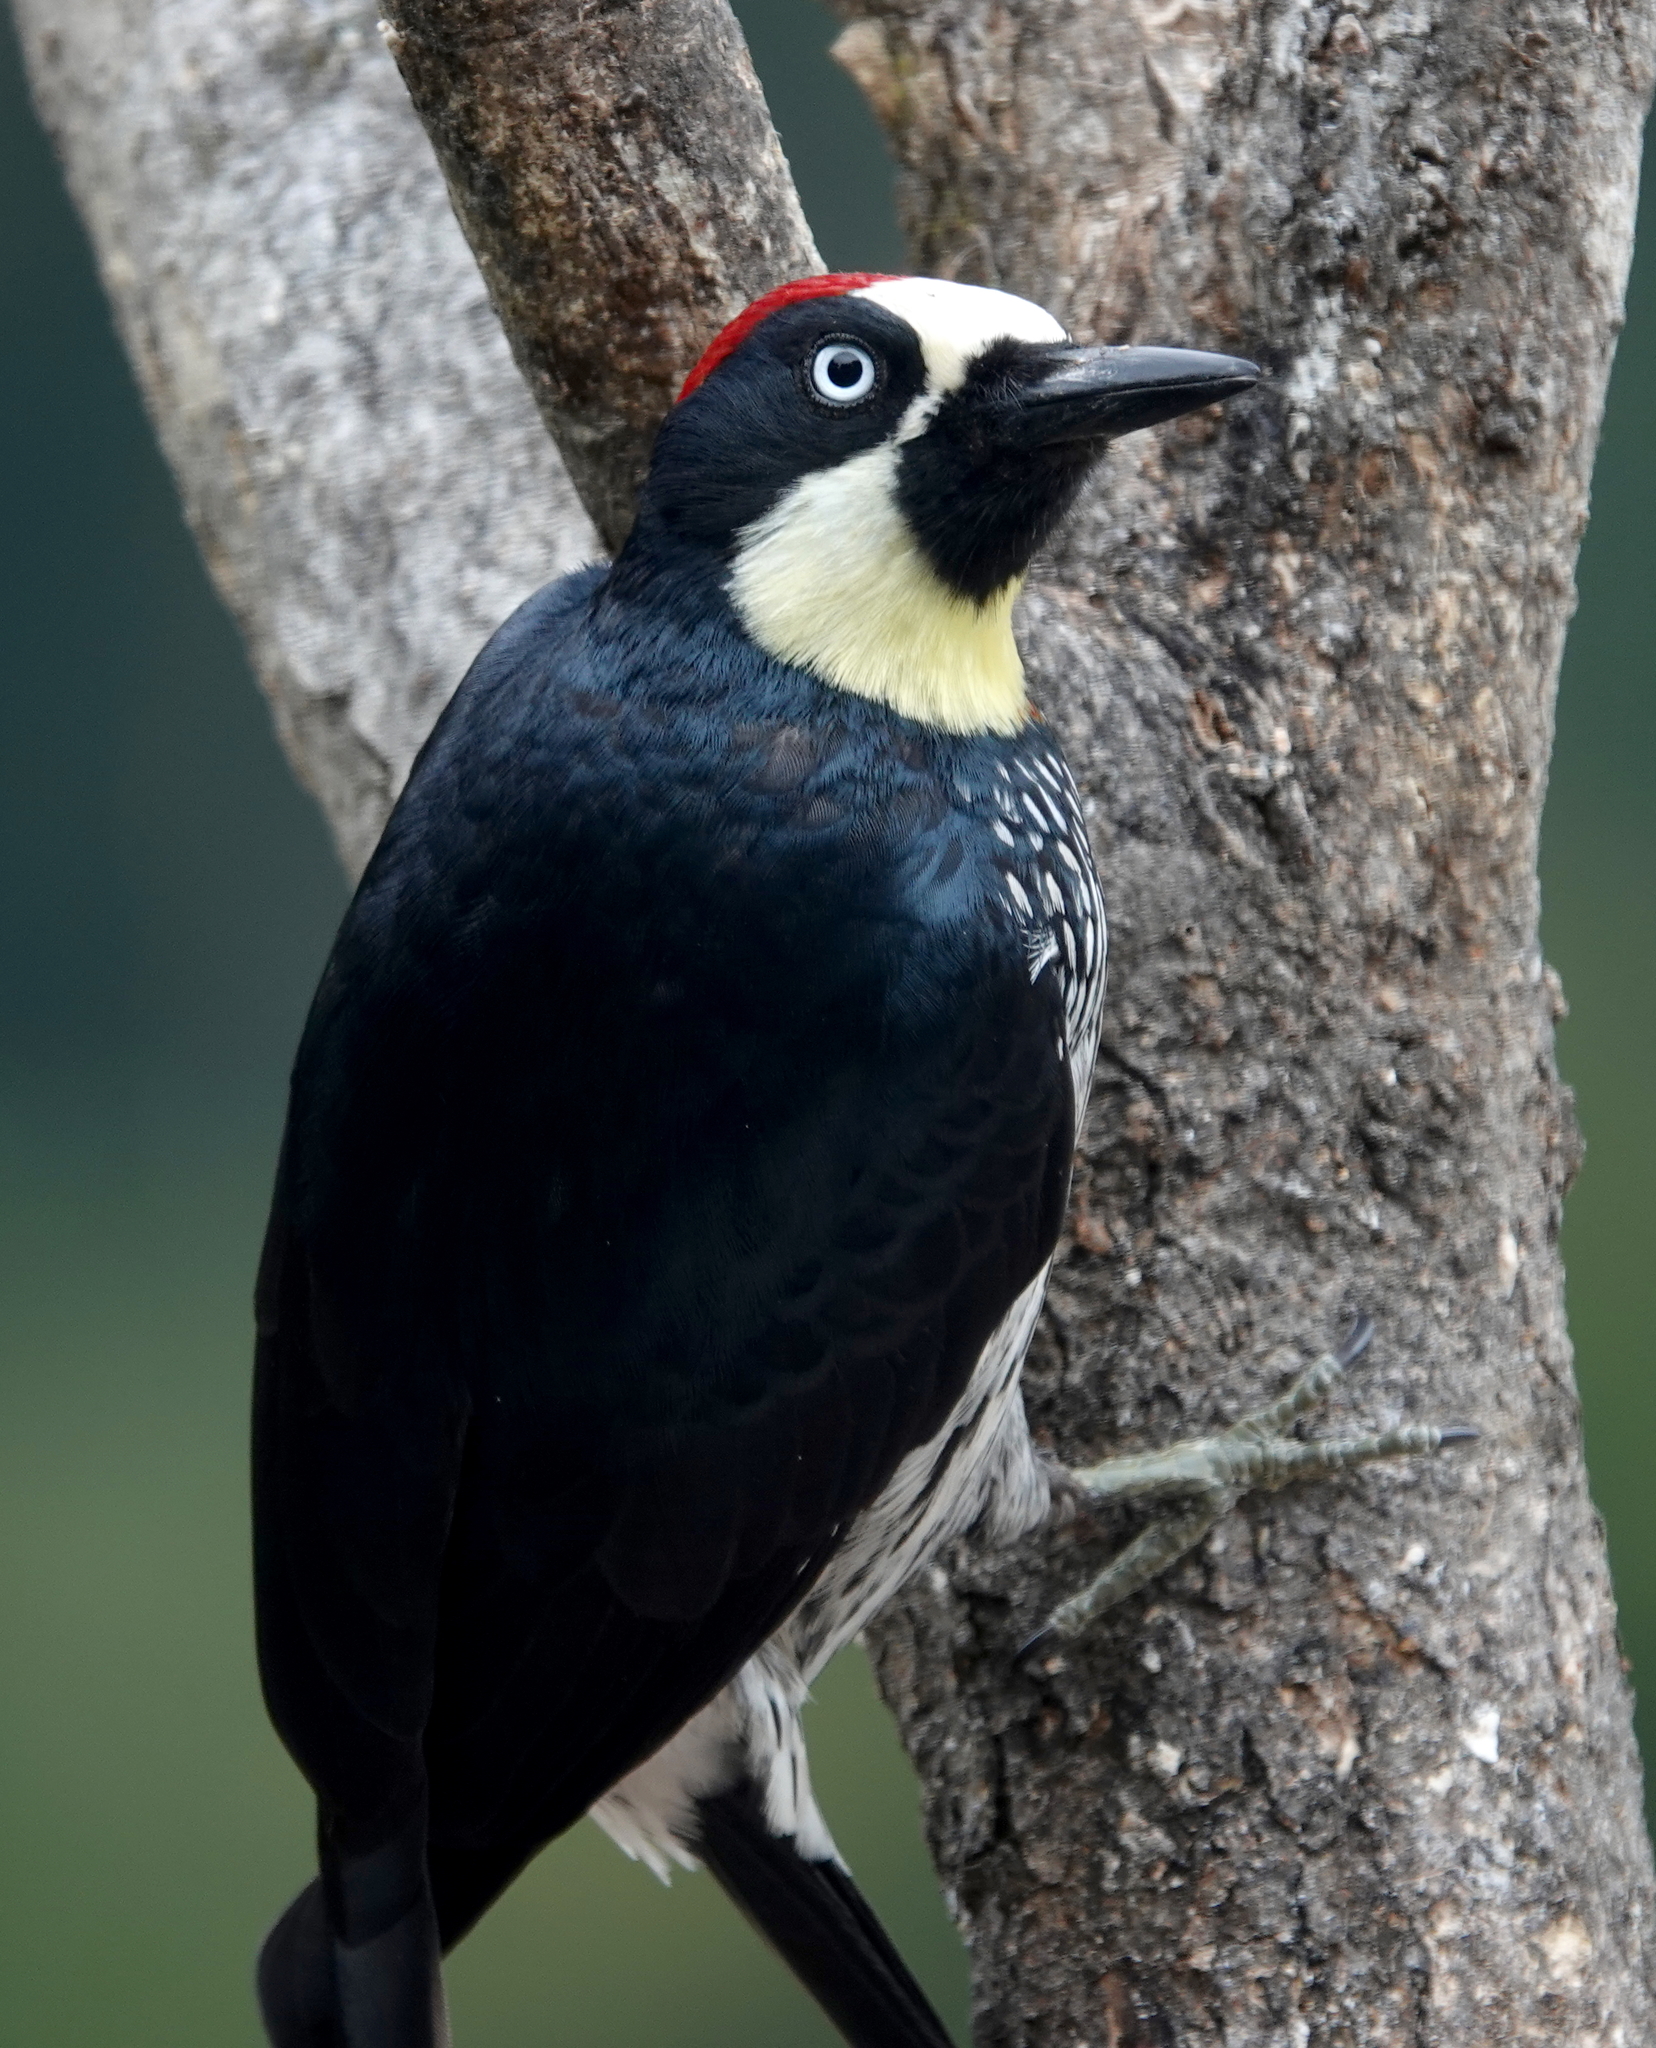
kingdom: Animalia
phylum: Chordata
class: Aves
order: Piciformes
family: Picidae
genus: Melanerpes
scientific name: Melanerpes formicivorus
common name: Acorn woodpecker
